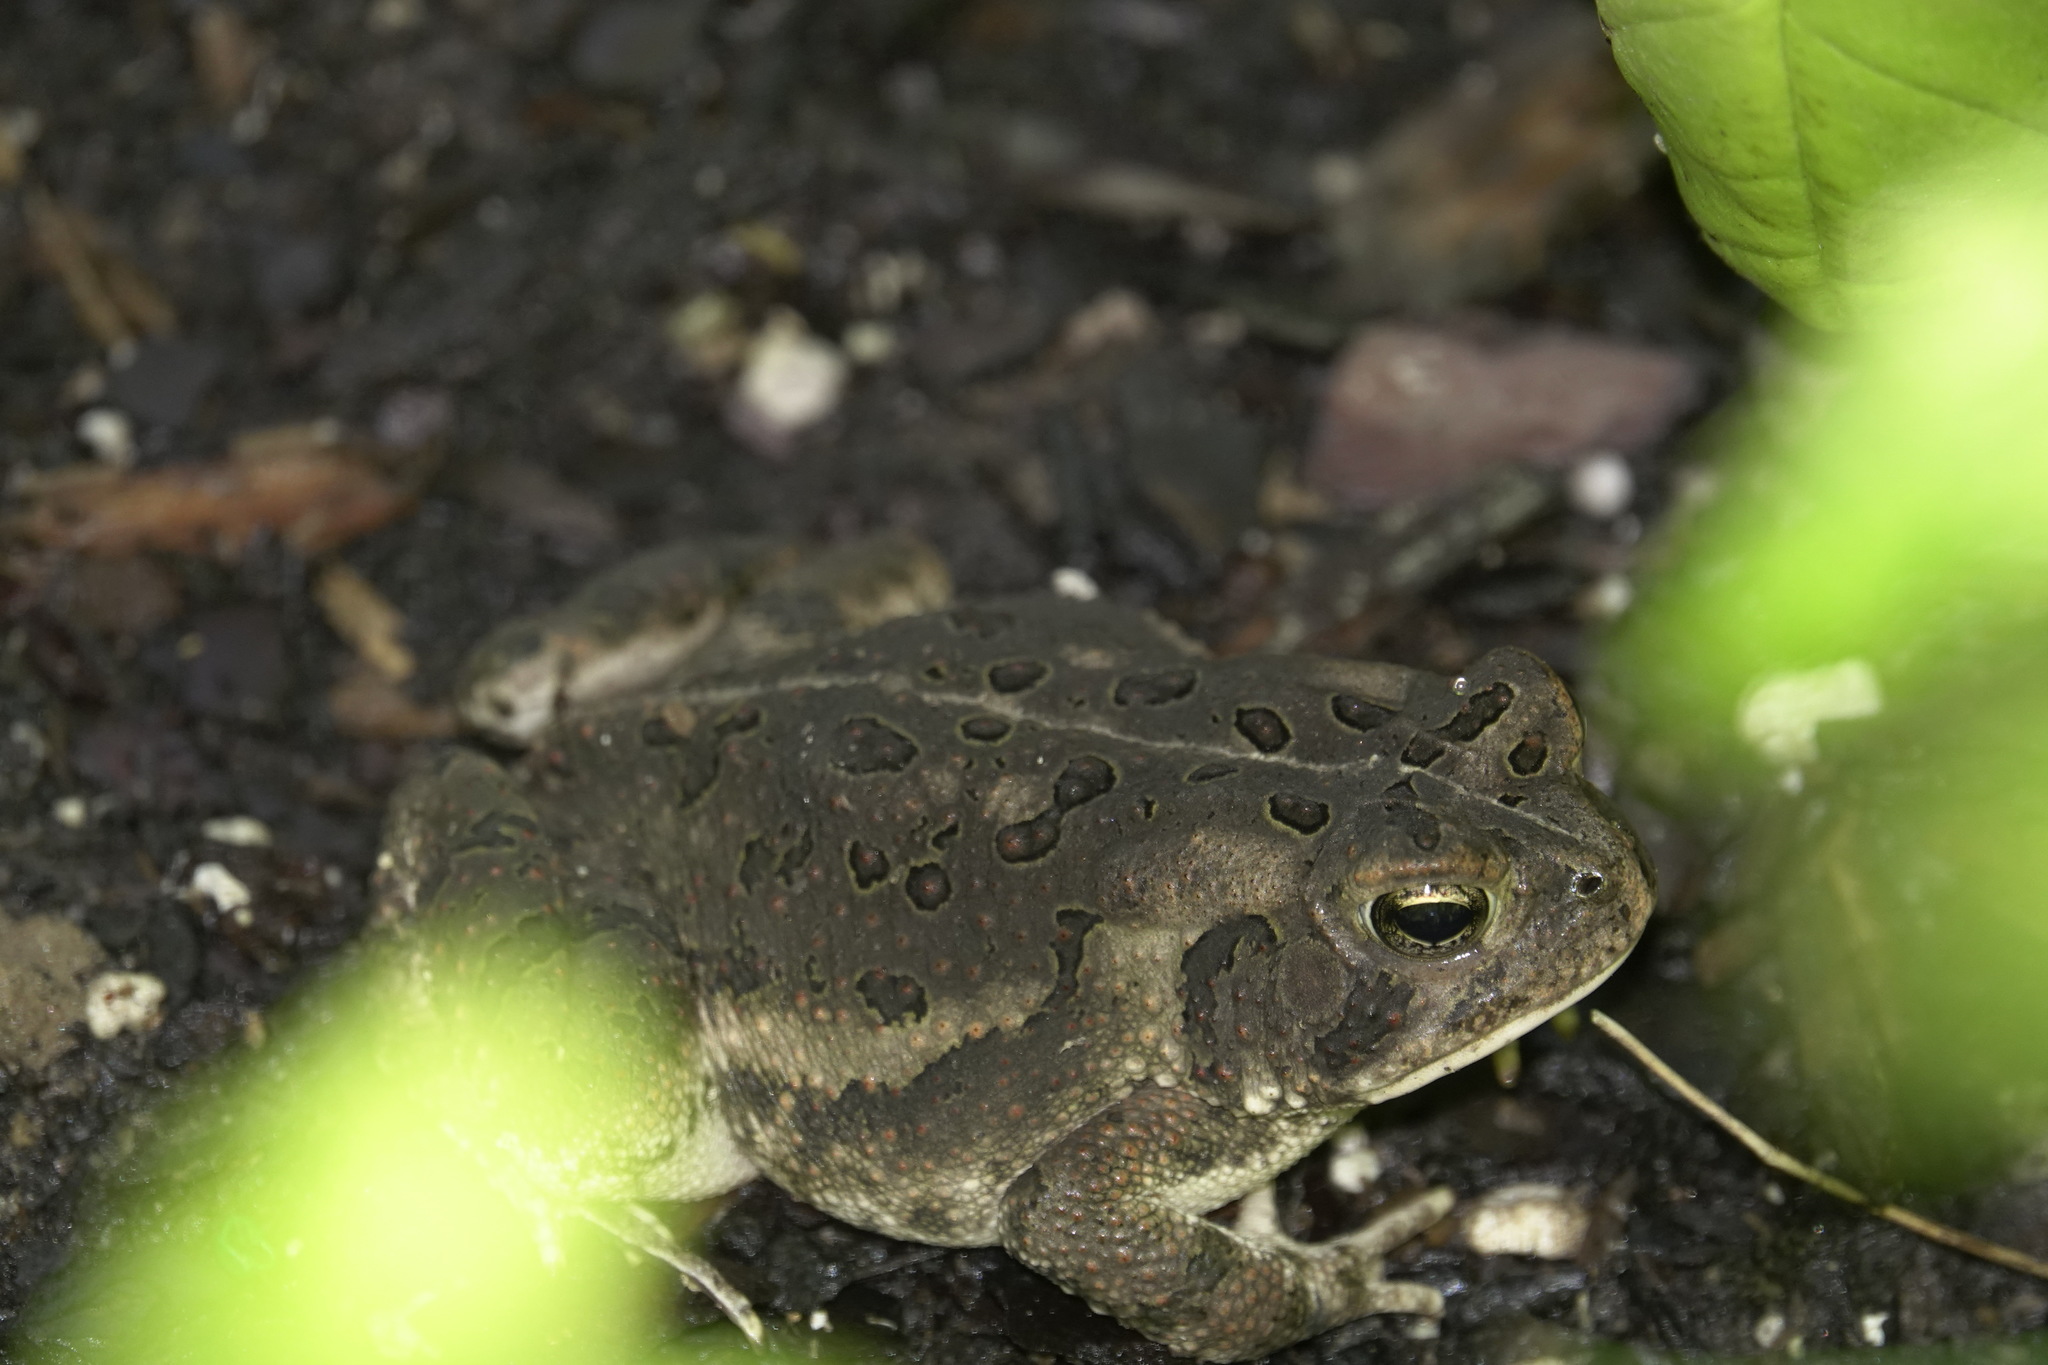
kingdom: Animalia
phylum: Chordata
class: Amphibia
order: Anura
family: Bufonidae
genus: Anaxyrus
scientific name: Anaxyrus fowleri
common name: Fowler's toad
